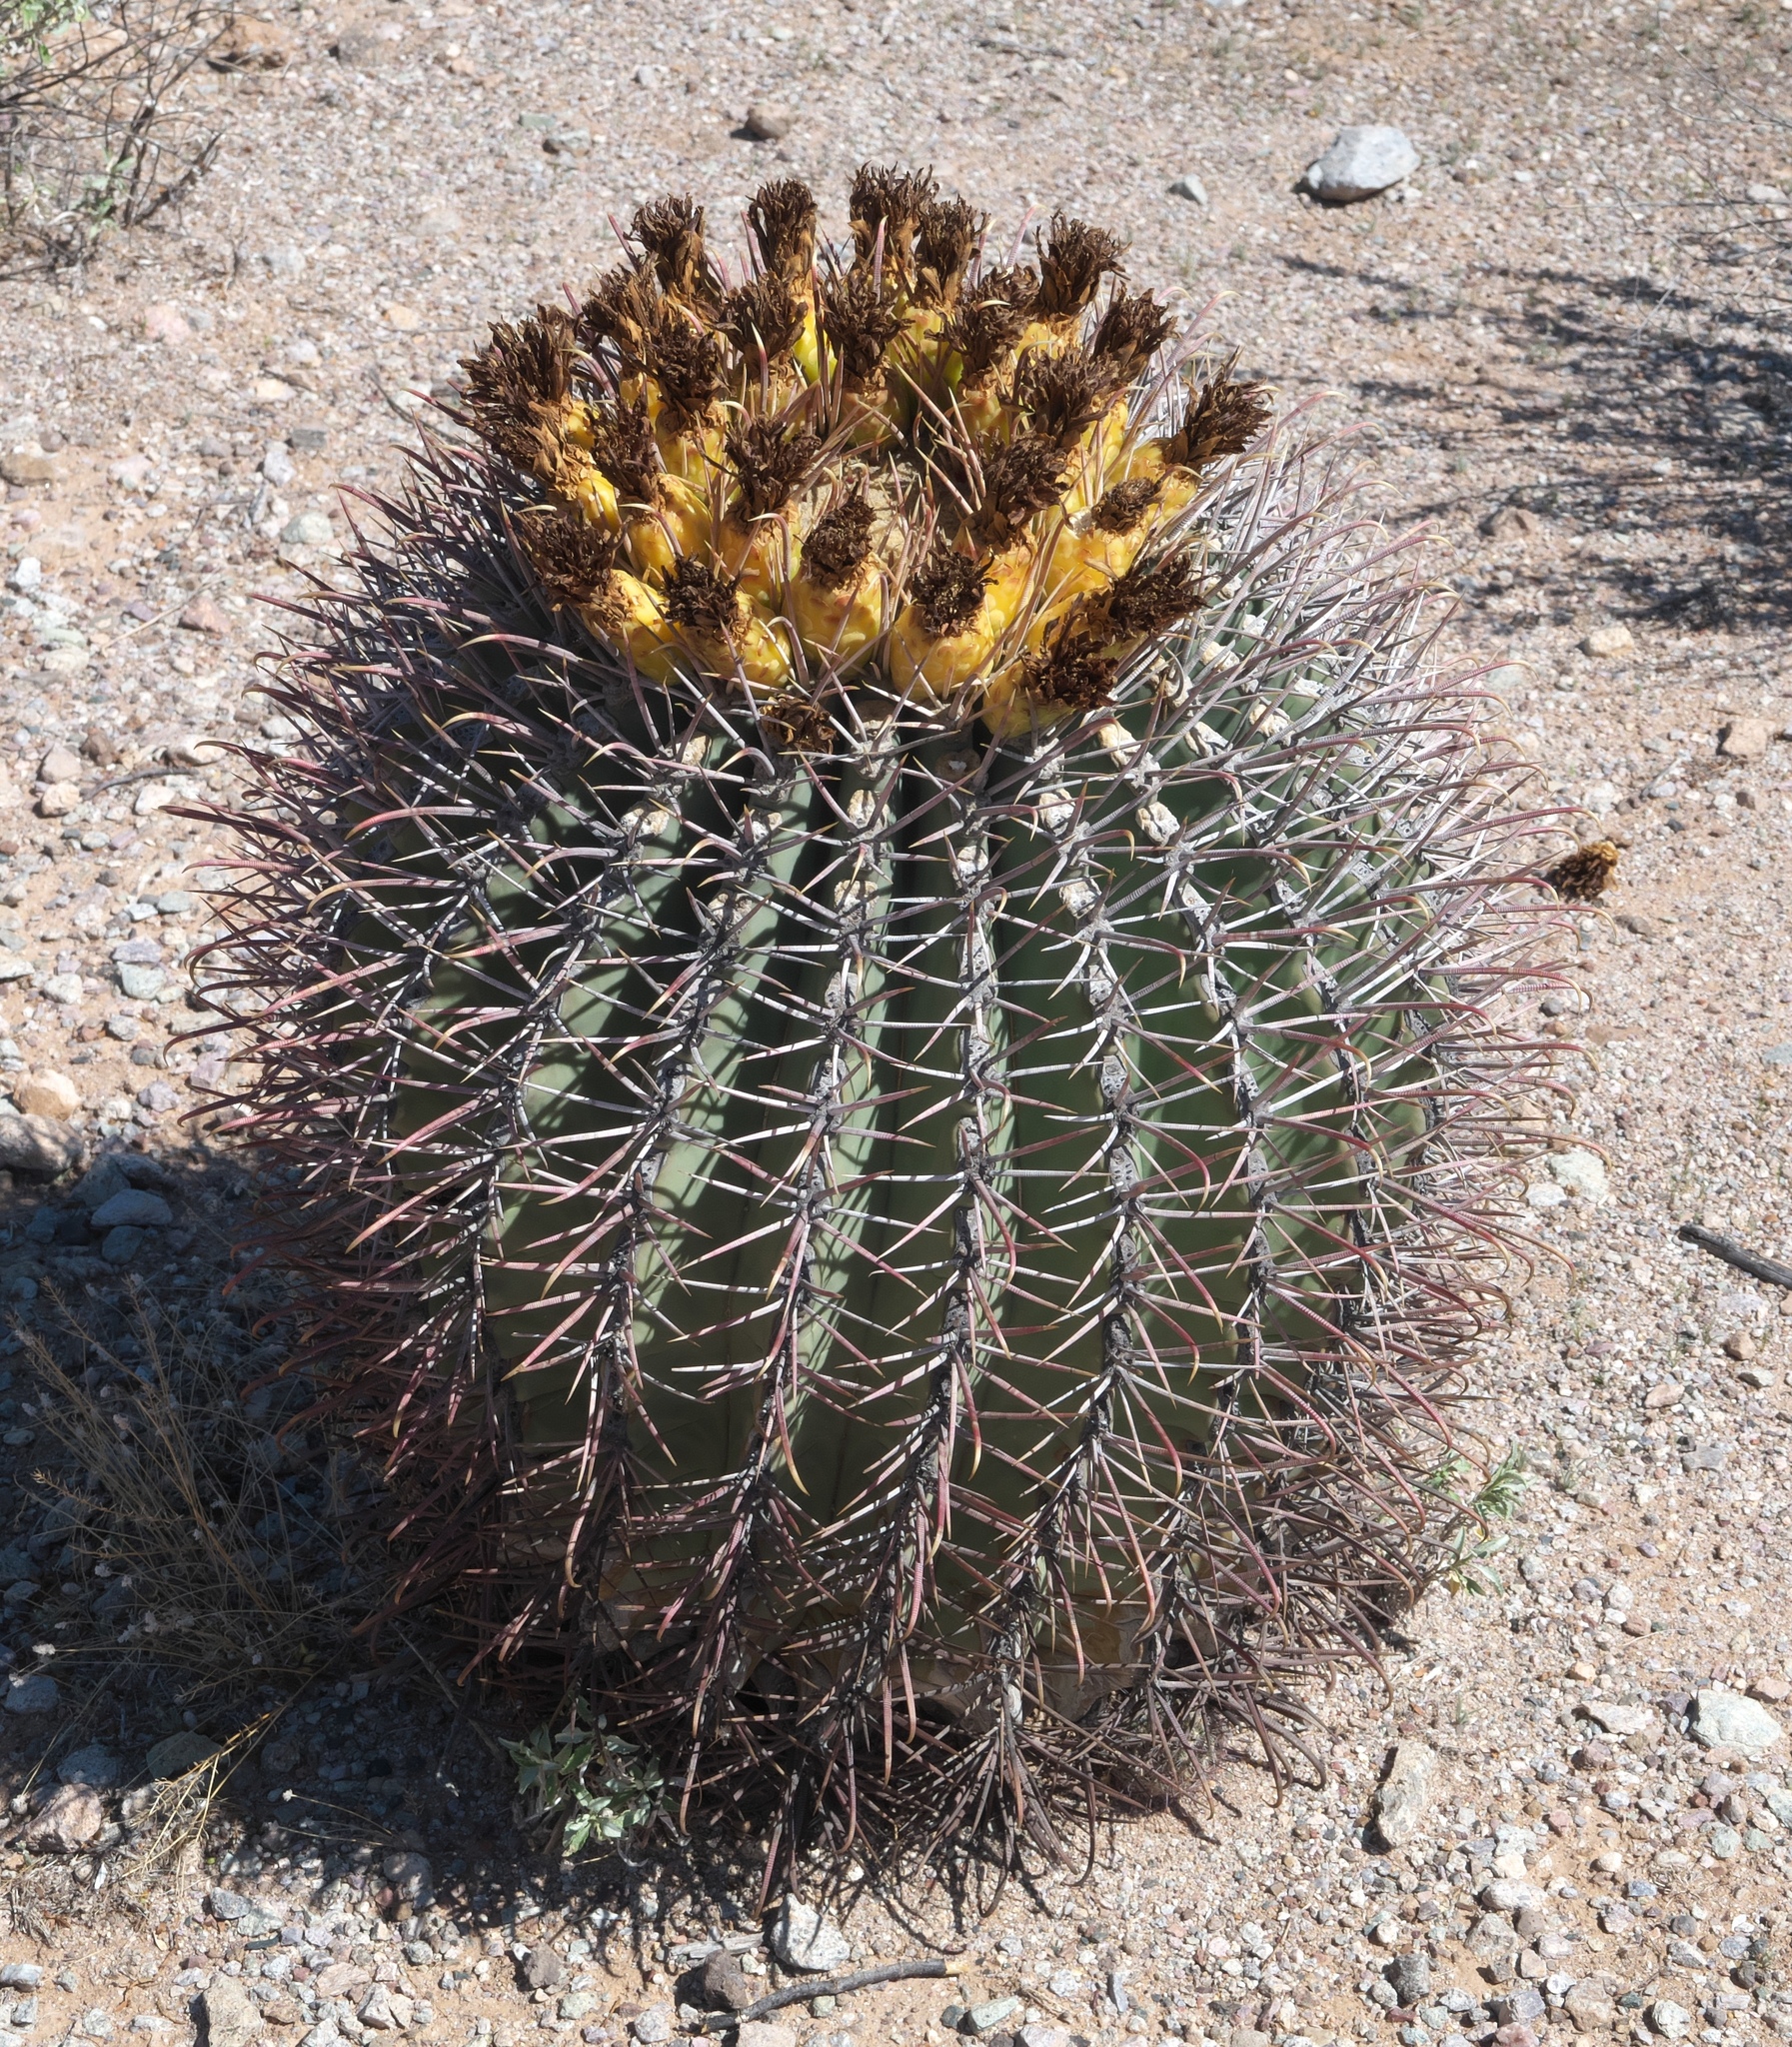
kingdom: Plantae
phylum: Tracheophyta
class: Magnoliopsida
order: Caryophyllales
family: Cactaceae
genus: Ferocactus
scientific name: Ferocactus emoryi
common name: Emory's barrel cactus
